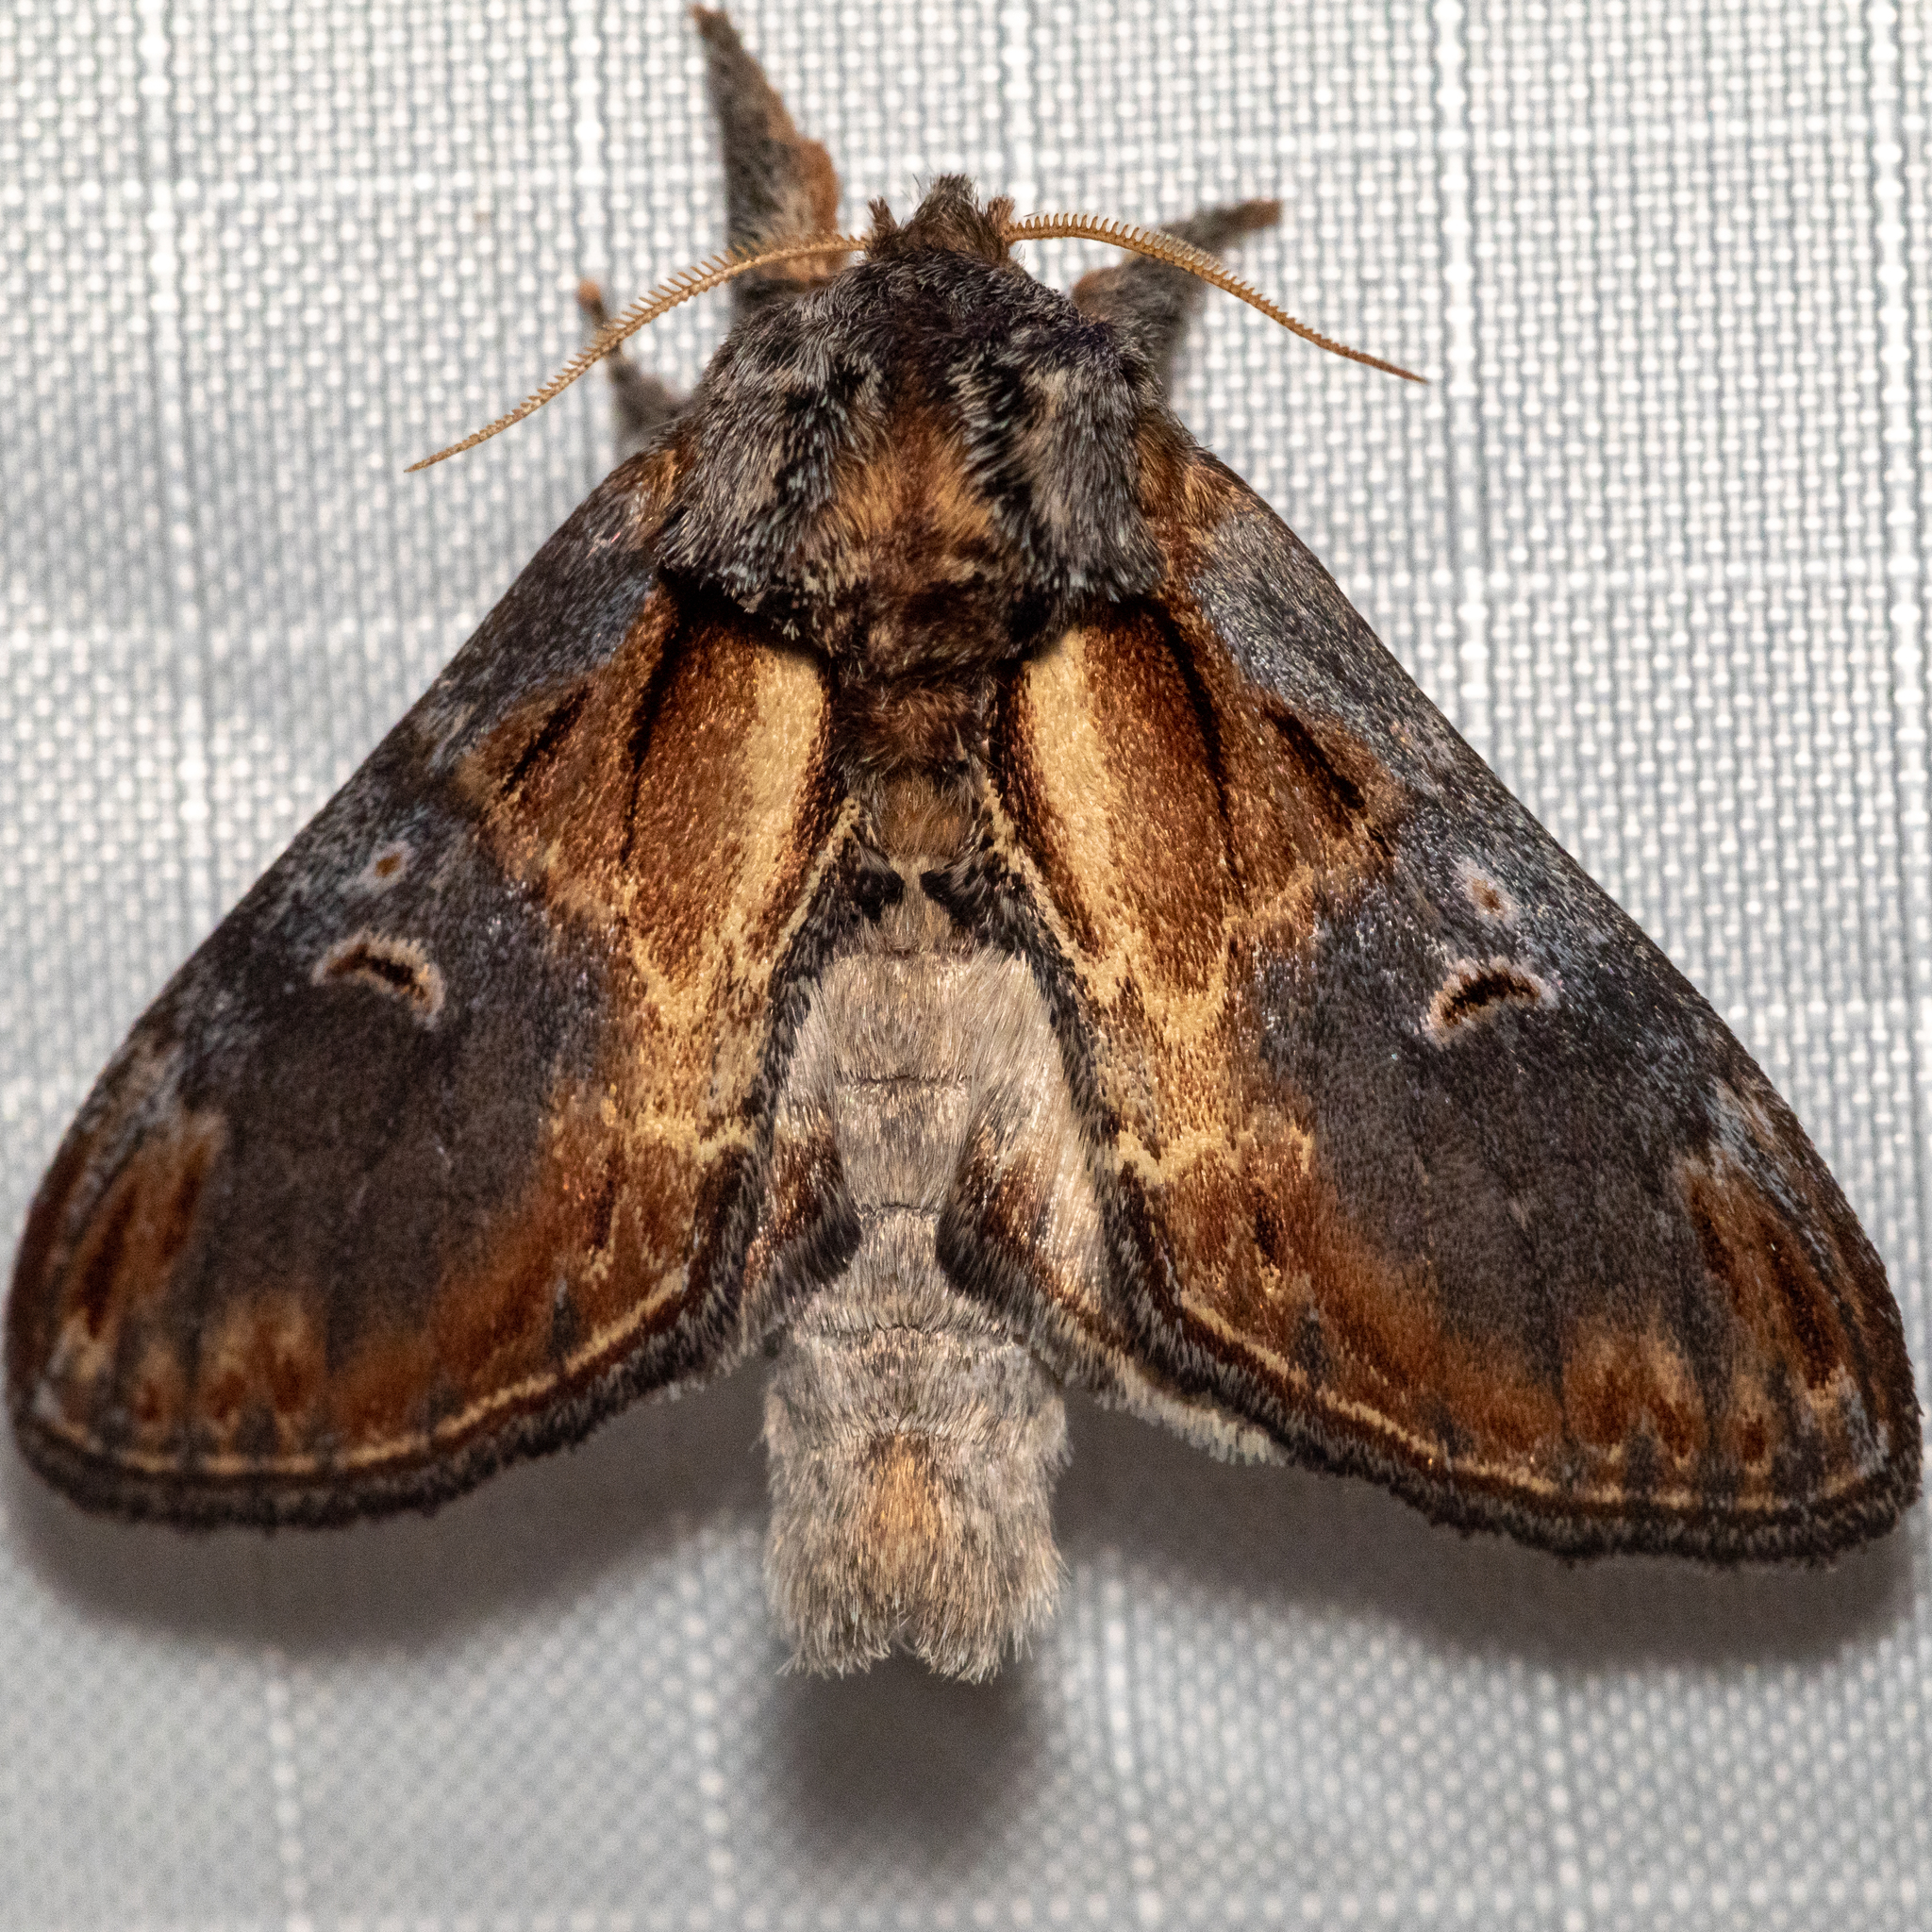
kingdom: Animalia
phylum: Arthropoda
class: Insecta
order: Lepidoptera
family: Notodontidae
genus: Notodonta
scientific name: Notodonta scitipennis
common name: Finned-willow prominent moth
